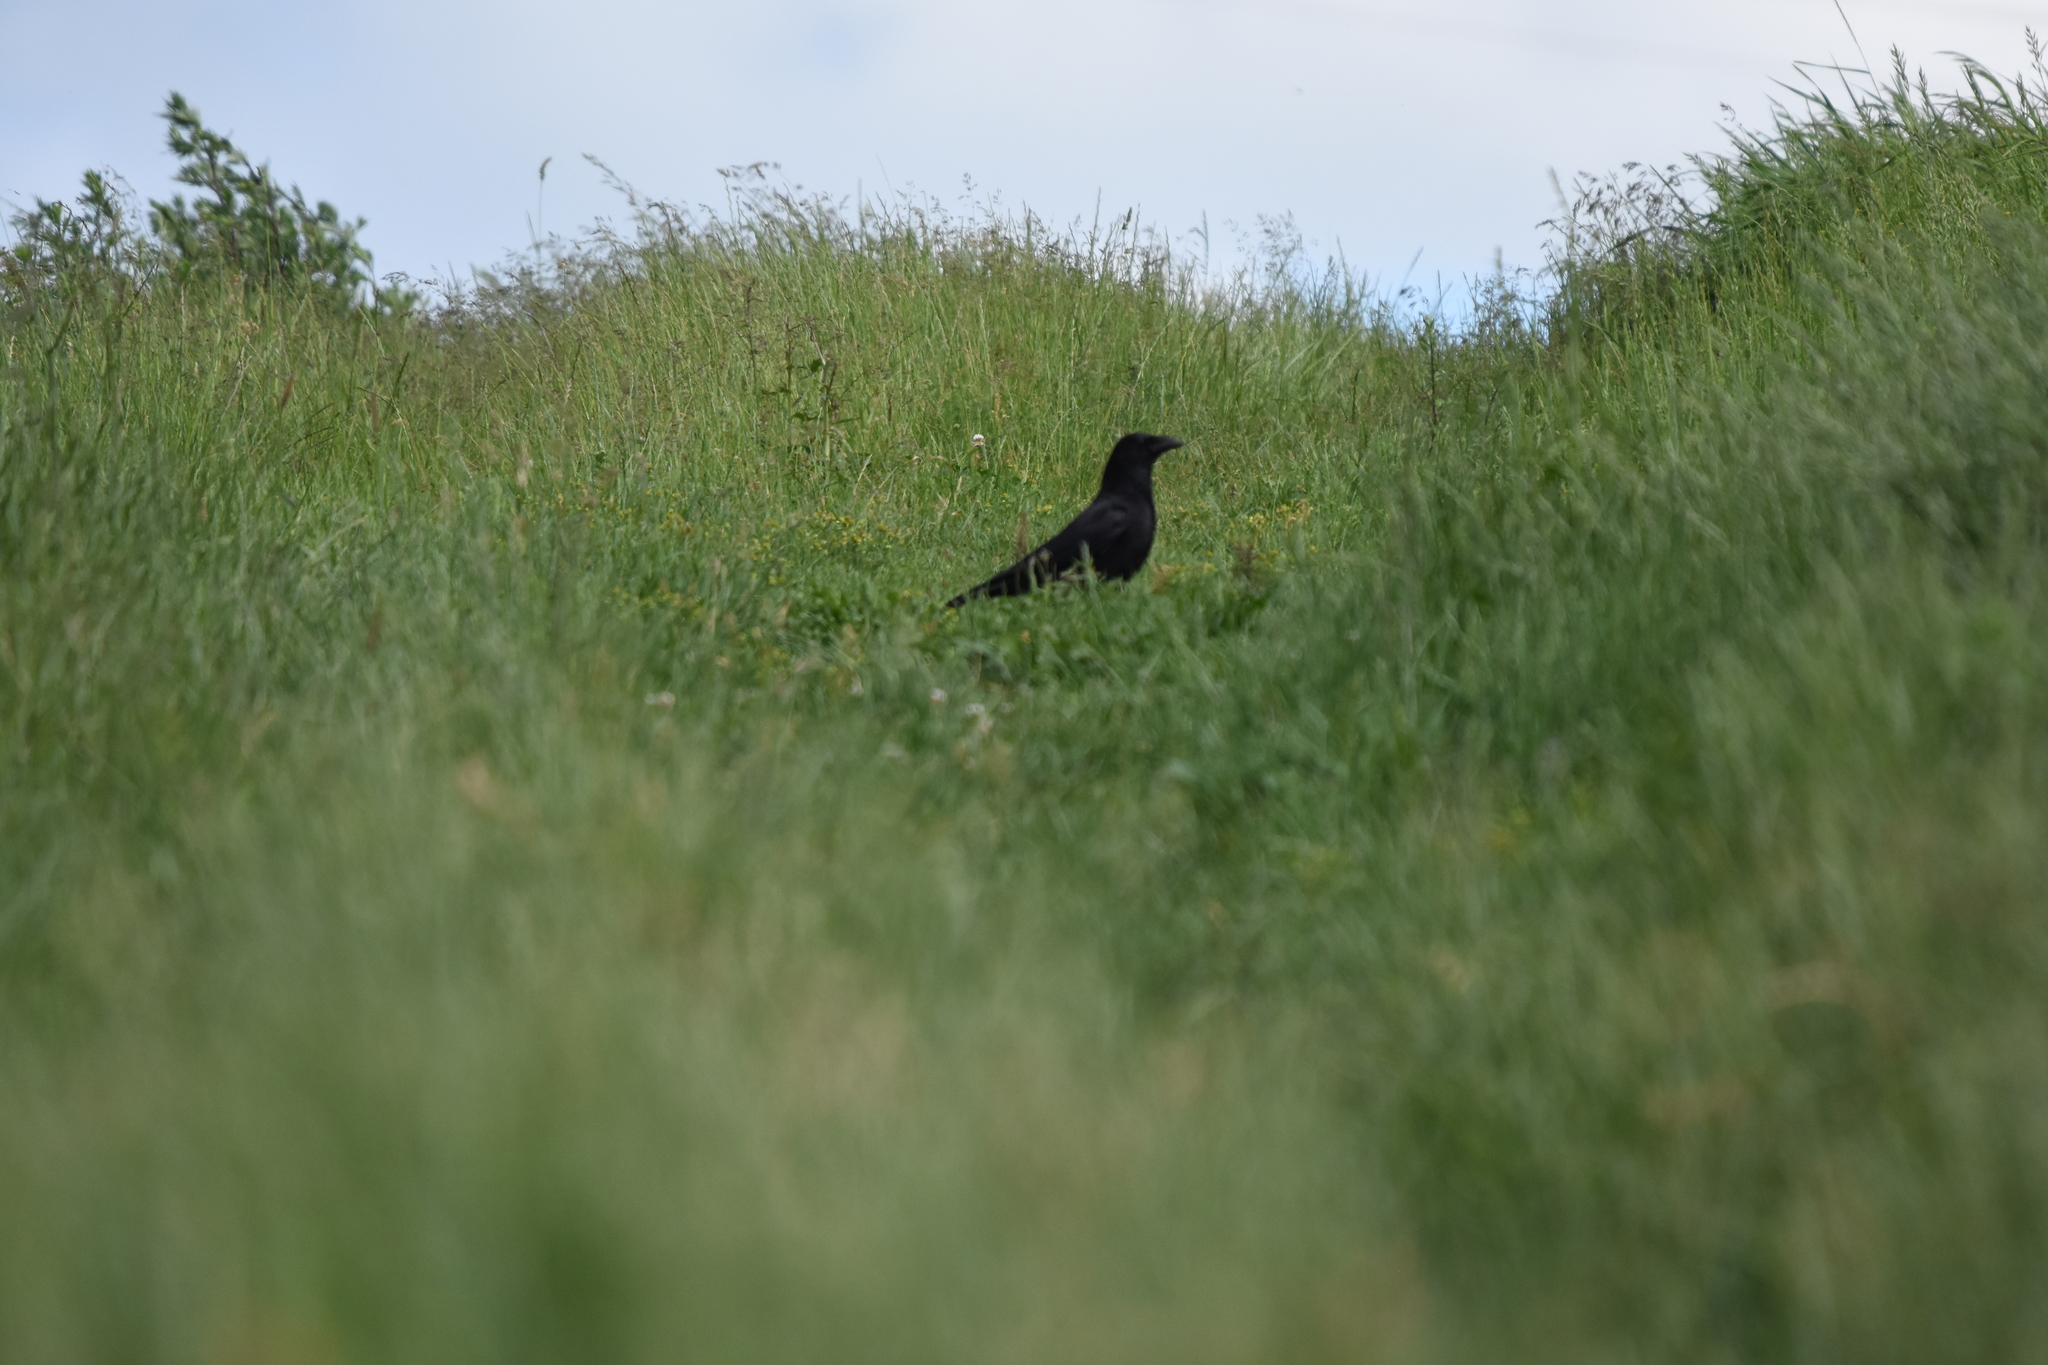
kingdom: Animalia
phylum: Chordata
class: Aves
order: Passeriformes
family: Corvidae
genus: Corvus
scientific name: Corvus corone
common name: Carrion crow
